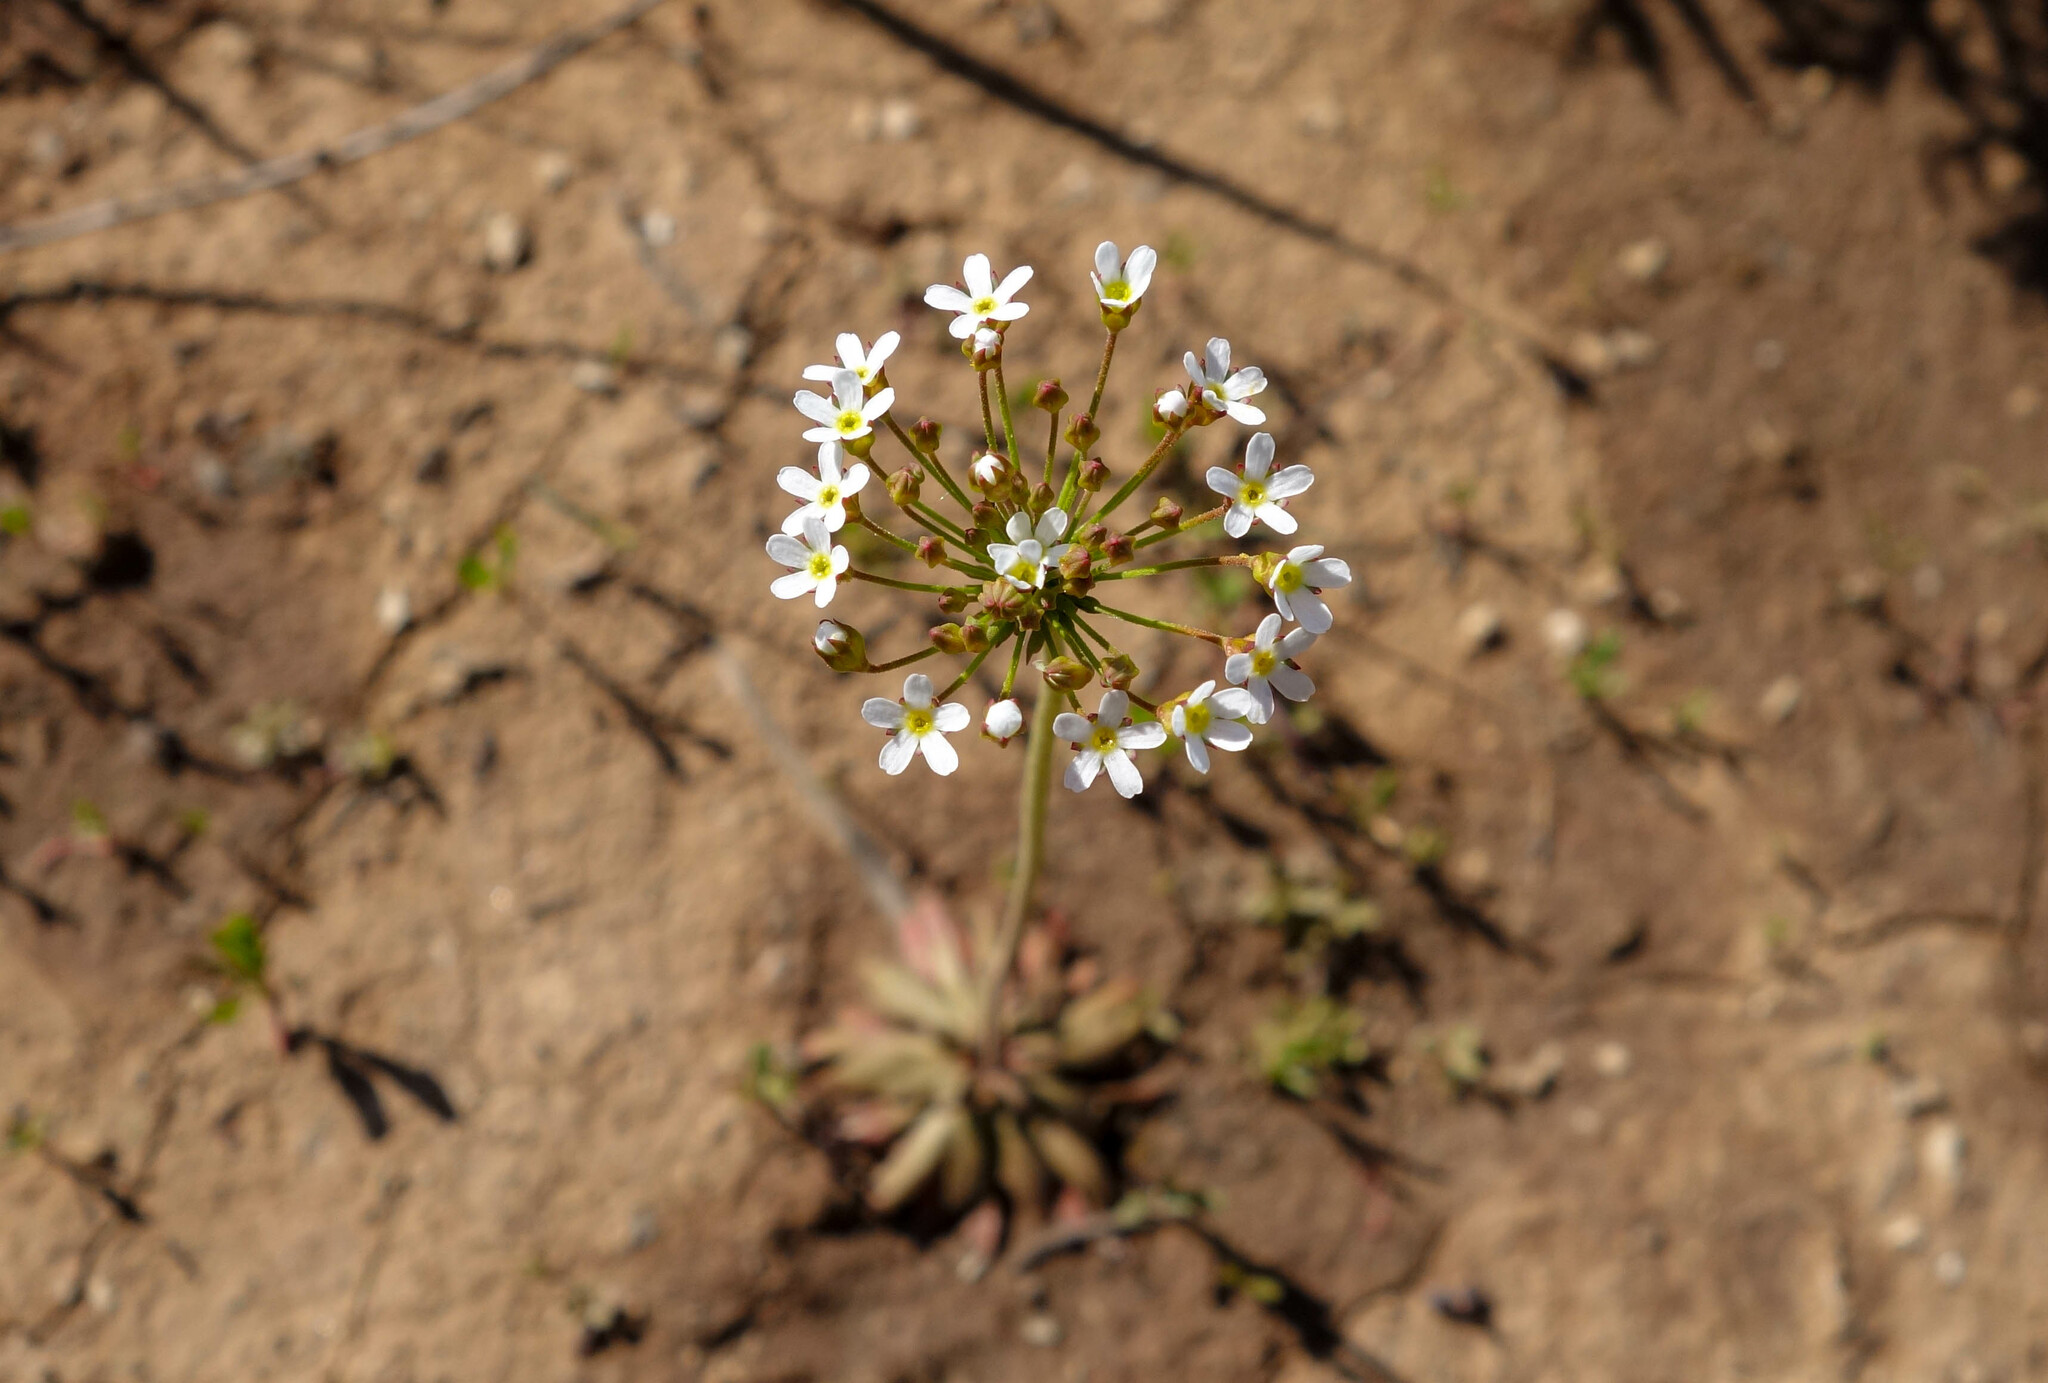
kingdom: Plantae
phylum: Tracheophyta
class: Magnoliopsida
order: Ericales
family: Primulaceae
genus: Androsace
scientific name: Androsace septentrionalis
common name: Hairy northern fairy-candelabra
